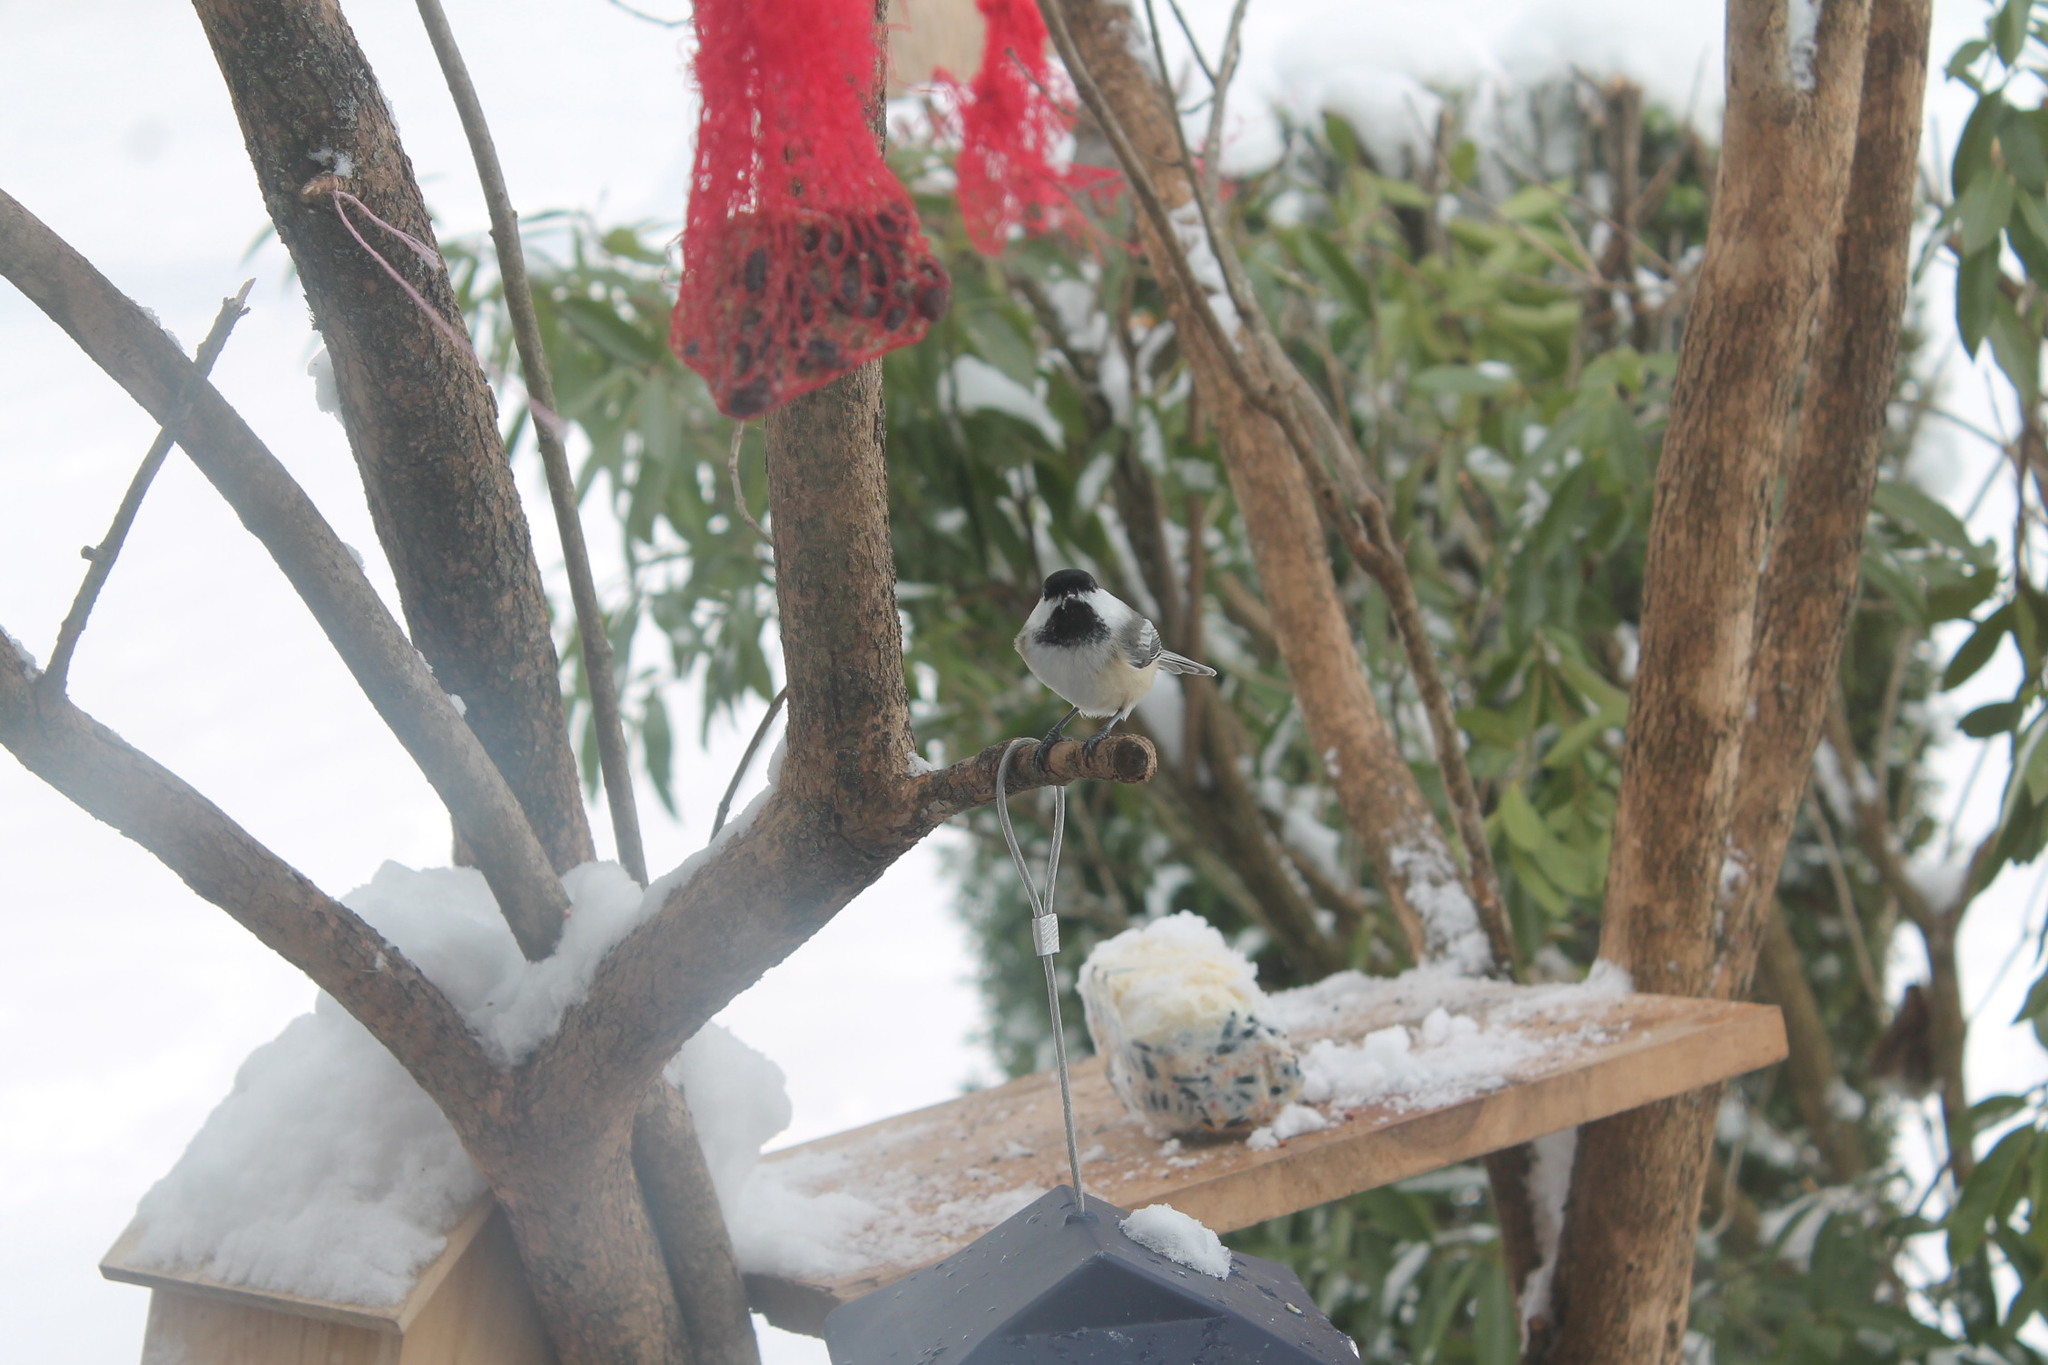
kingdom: Animalia
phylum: Chordata
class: Aves
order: Passeriformes
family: Paridae
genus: Poecile
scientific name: Poecile atricapillus
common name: Black-capped chickadee
